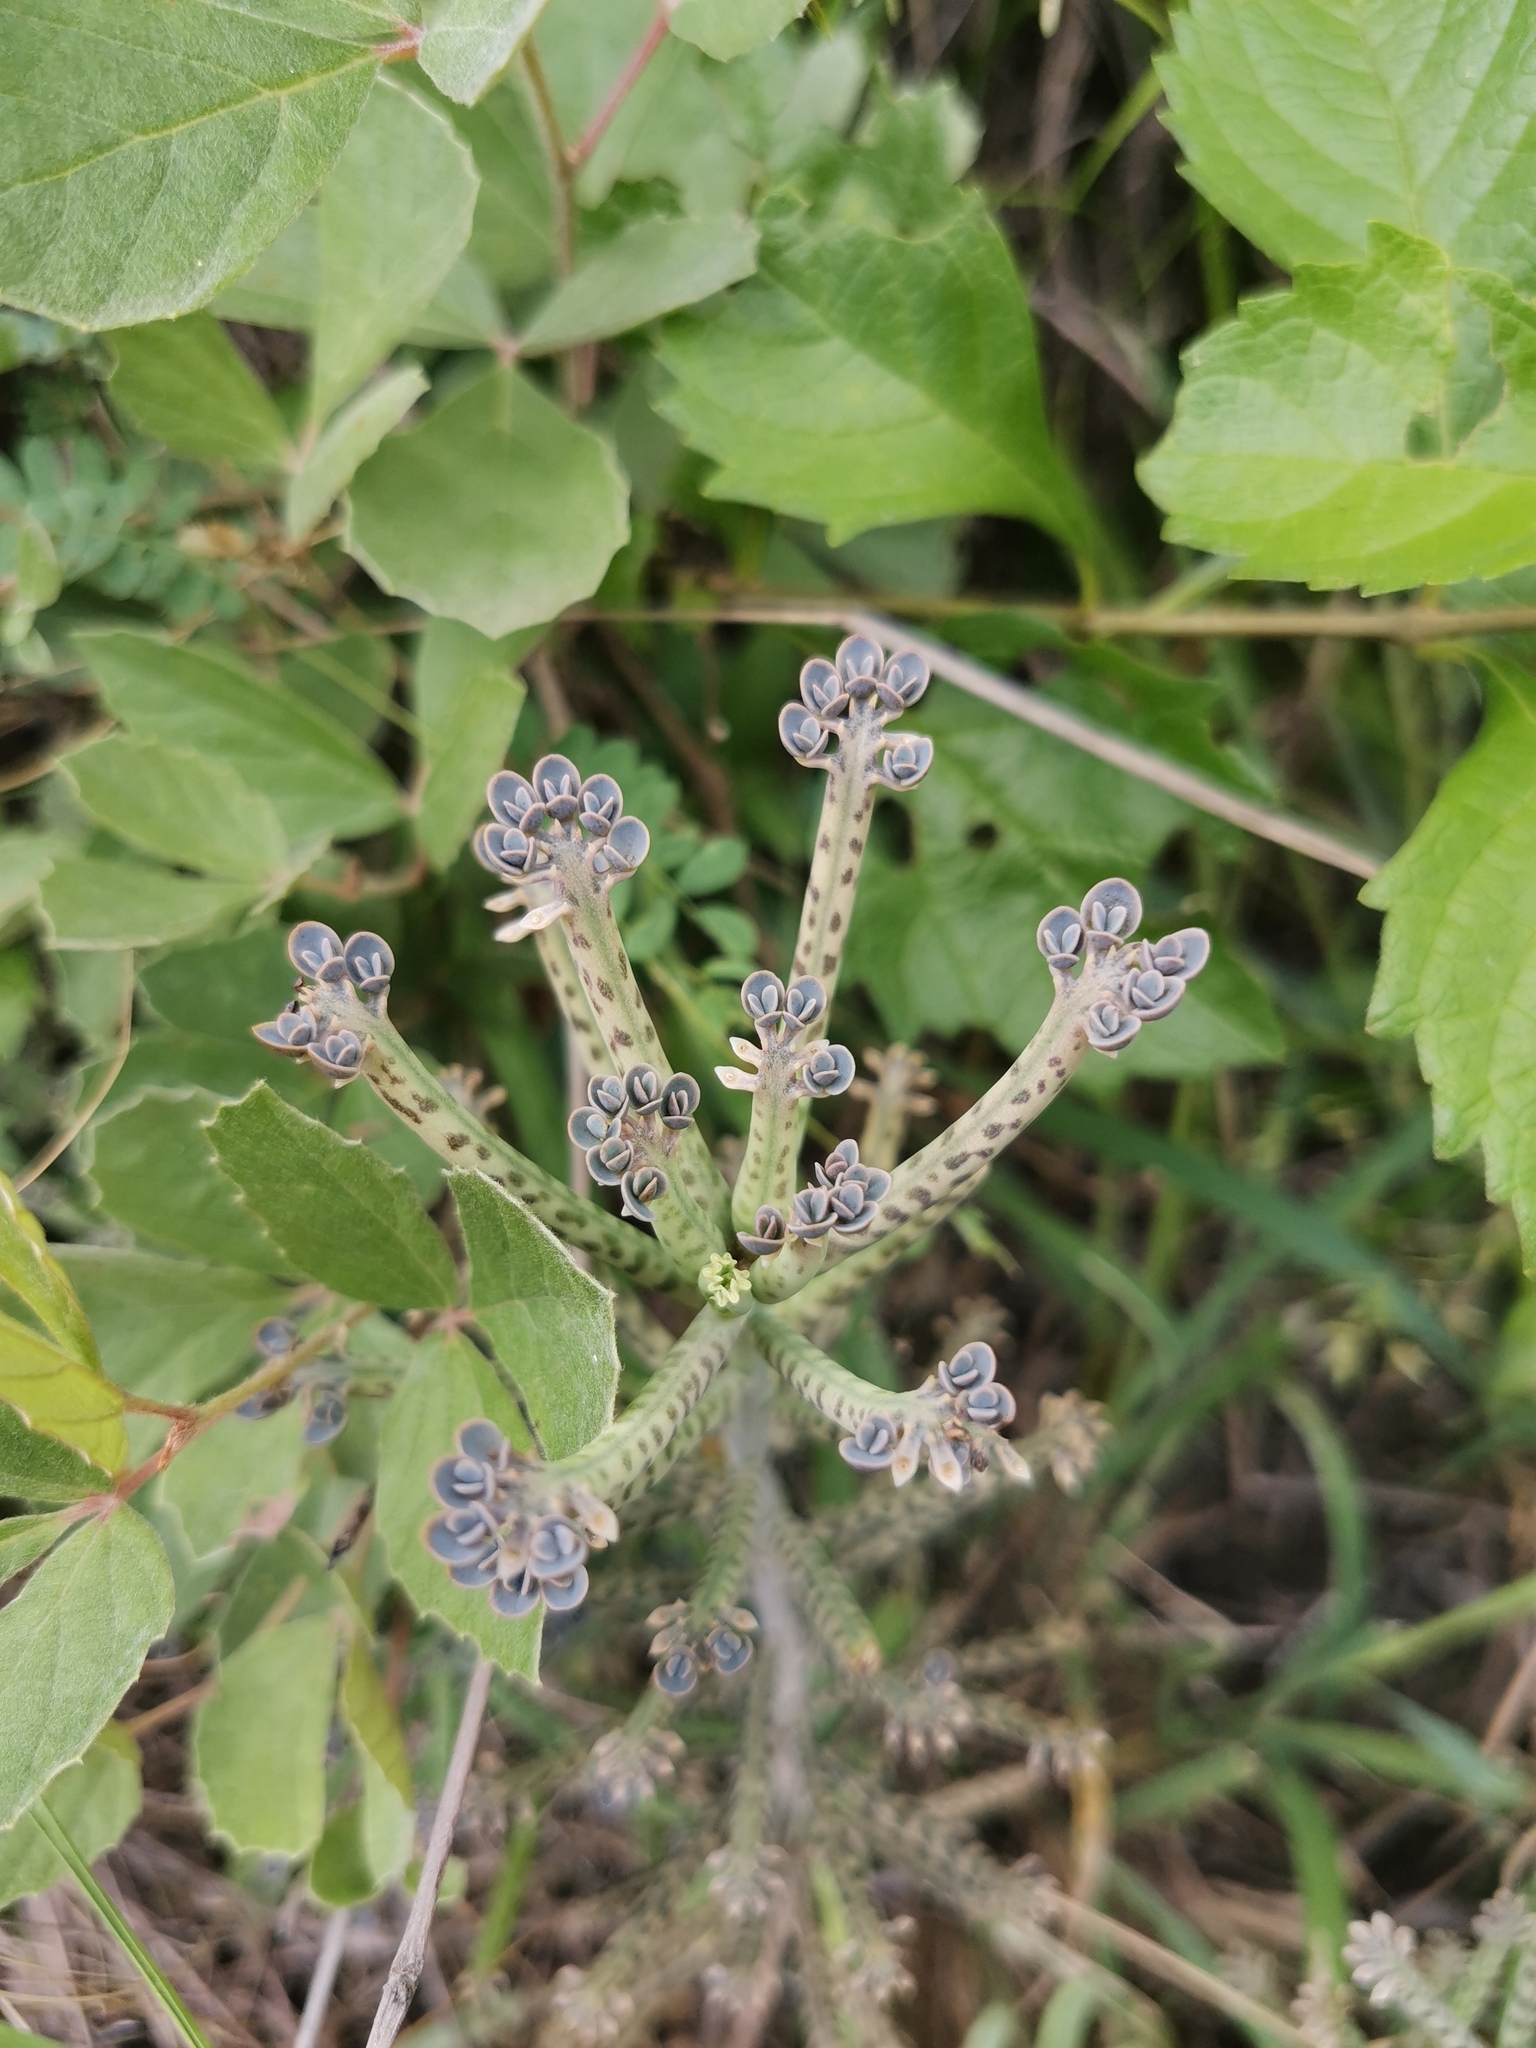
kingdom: Plantae
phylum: Tracheophyta
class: Magnoliopsida
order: Saxifragales
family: Crassulaceae
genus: Kalanchoe
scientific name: Kalanchoe delagoensis
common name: Chandelier plant
